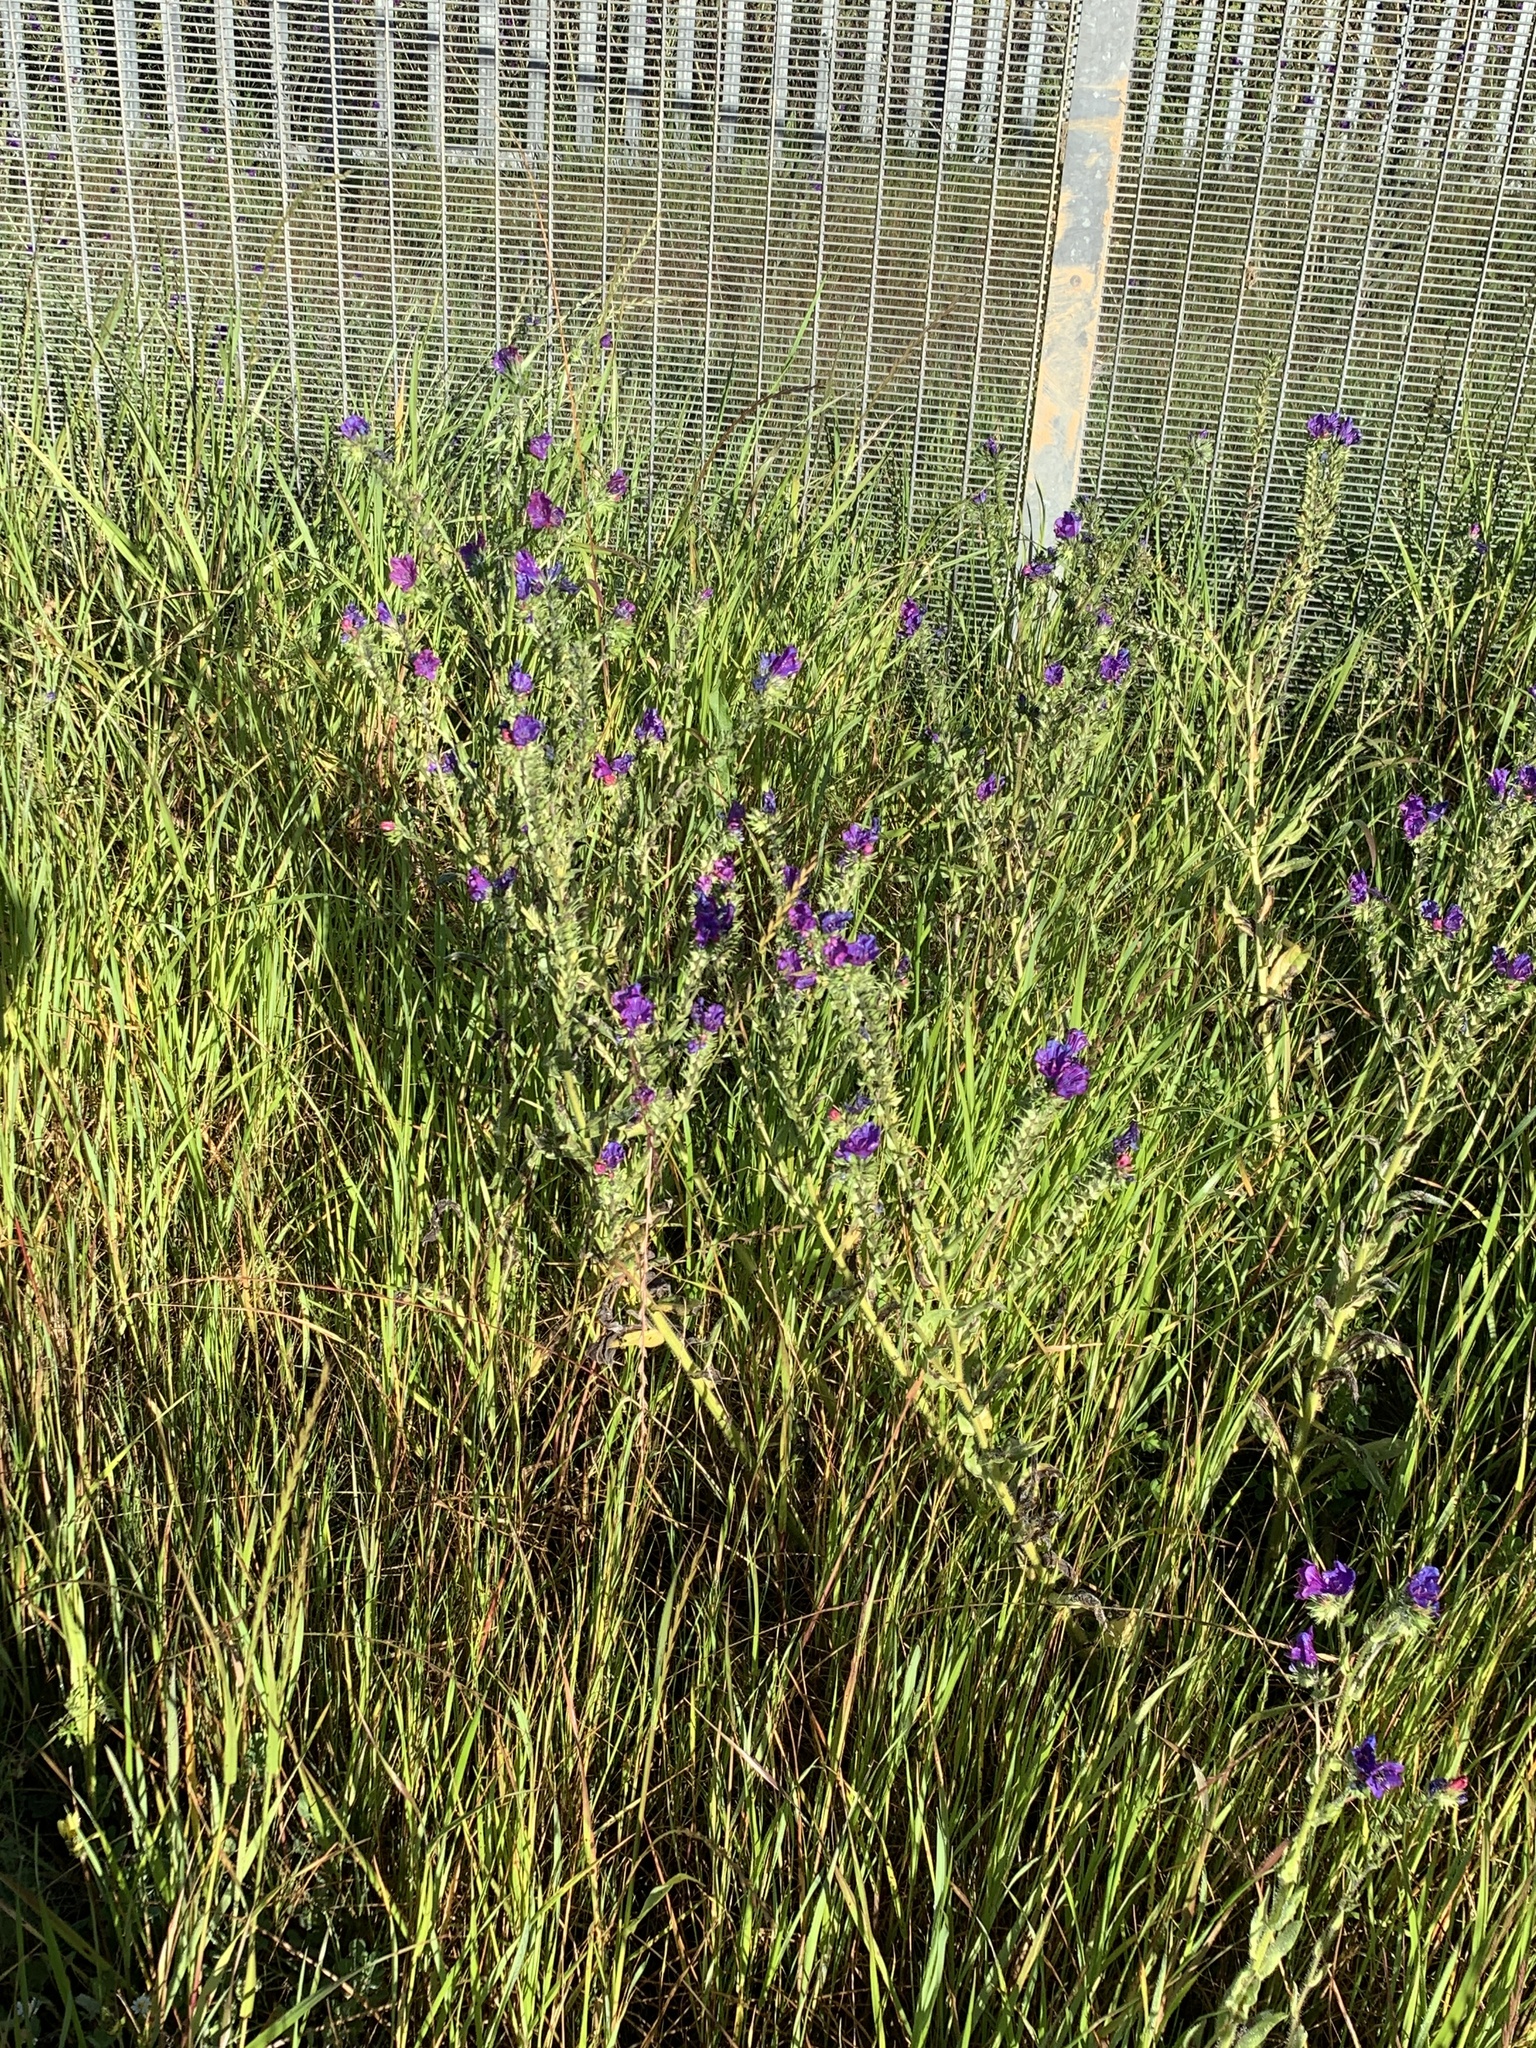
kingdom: Plantae
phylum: Tracheophyta
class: Magnoliopsida
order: Boraginales
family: Boraginaceae
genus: Echium
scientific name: Echium plantagineum
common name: Purple viper's-bugloss
